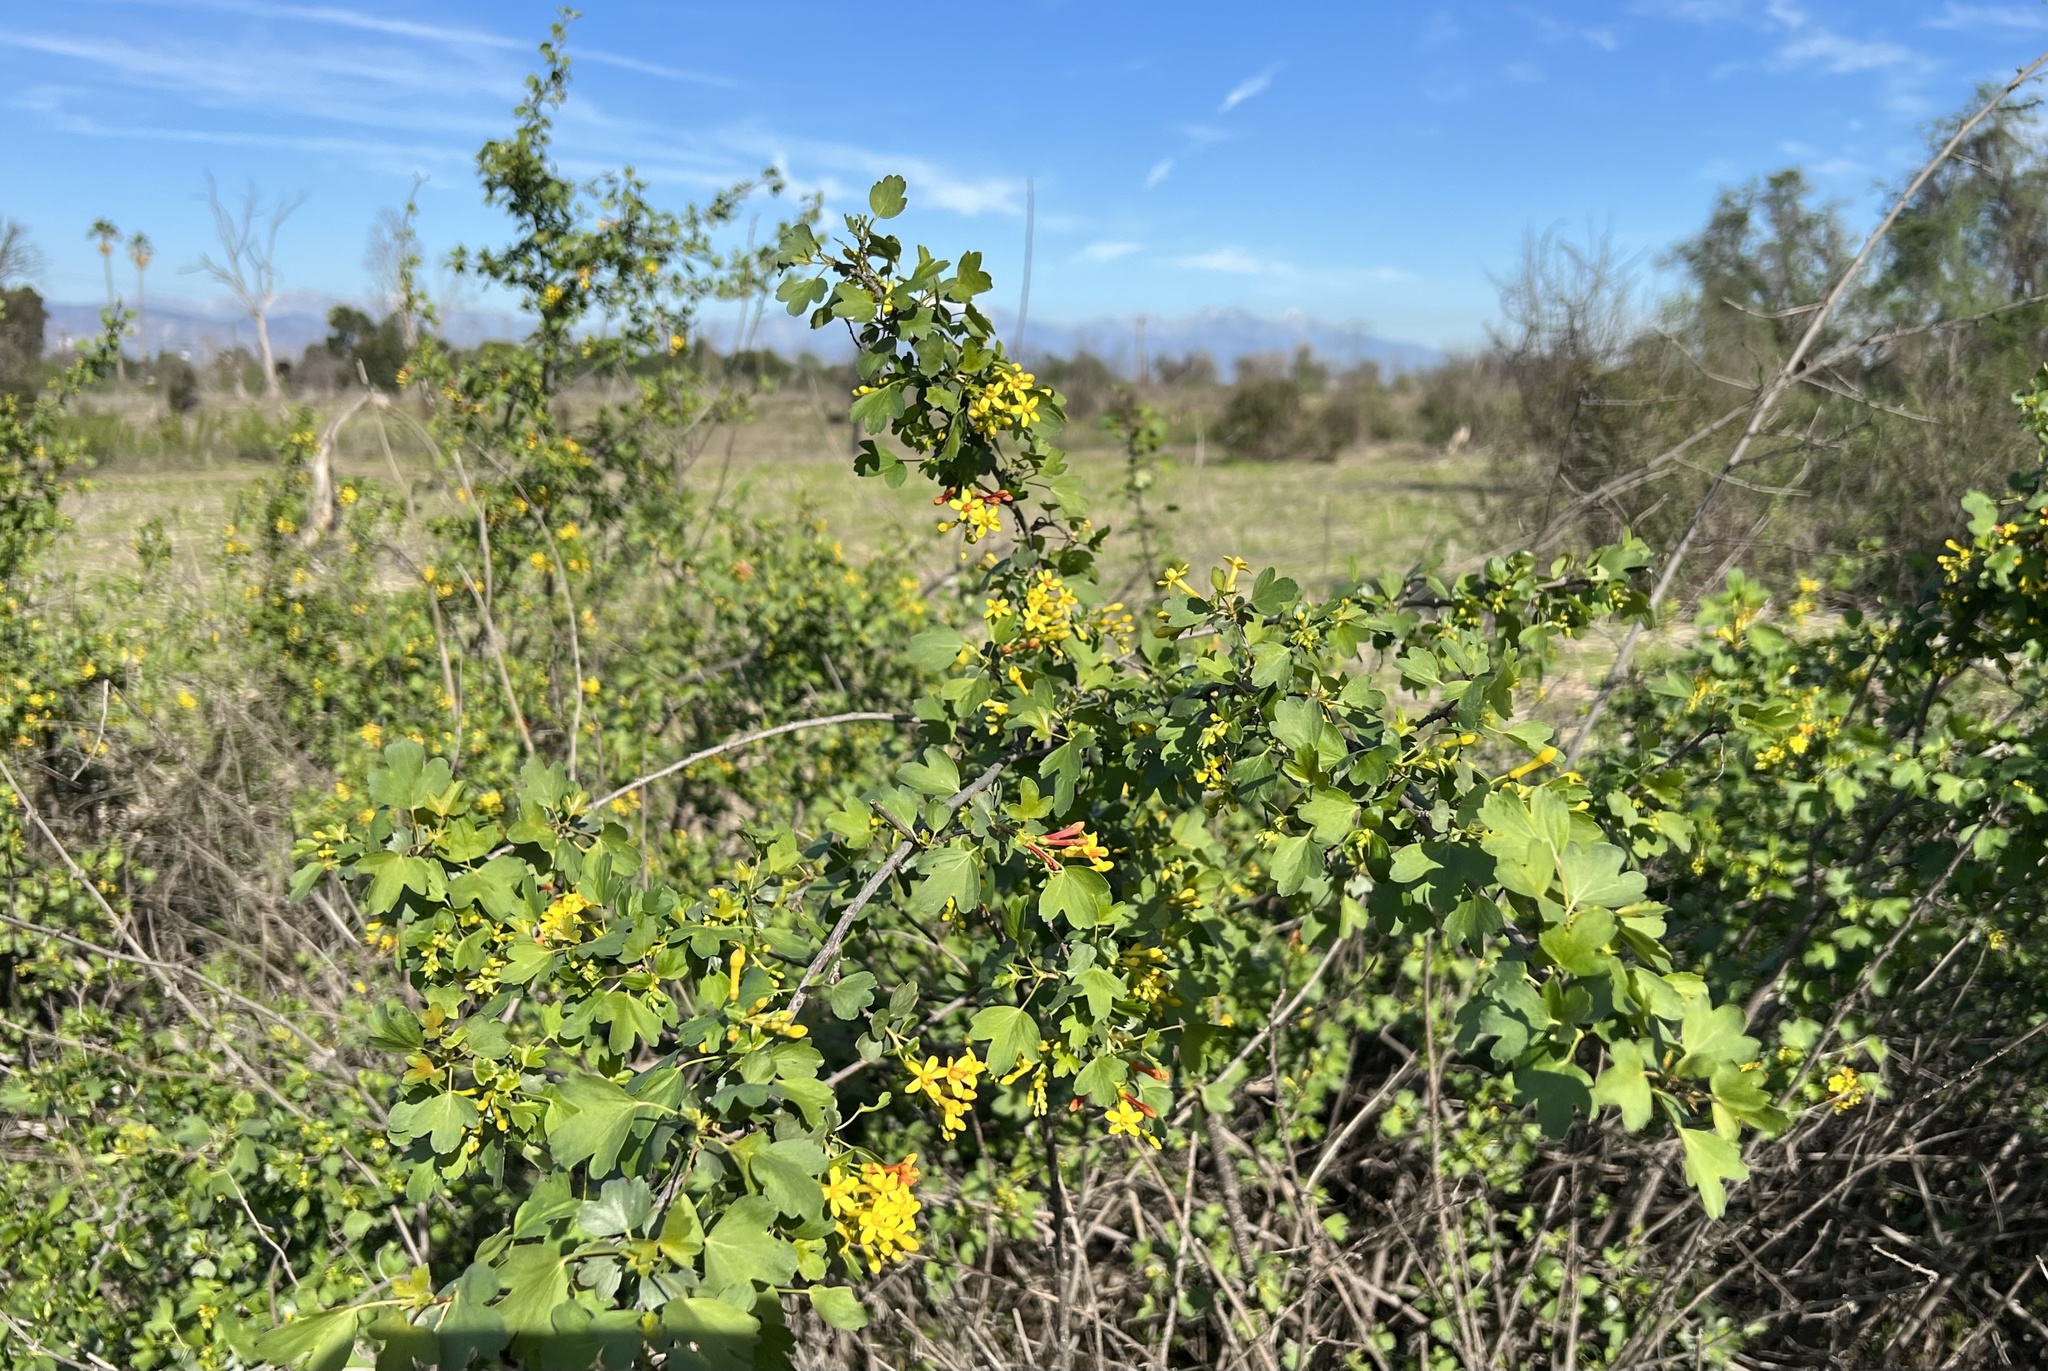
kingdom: Plantae
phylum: Tracheophyta
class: Magnoliopsida
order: Saxifragales
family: Grossulariaceae
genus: Ribes
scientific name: Ribes aureum
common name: Golden currant
